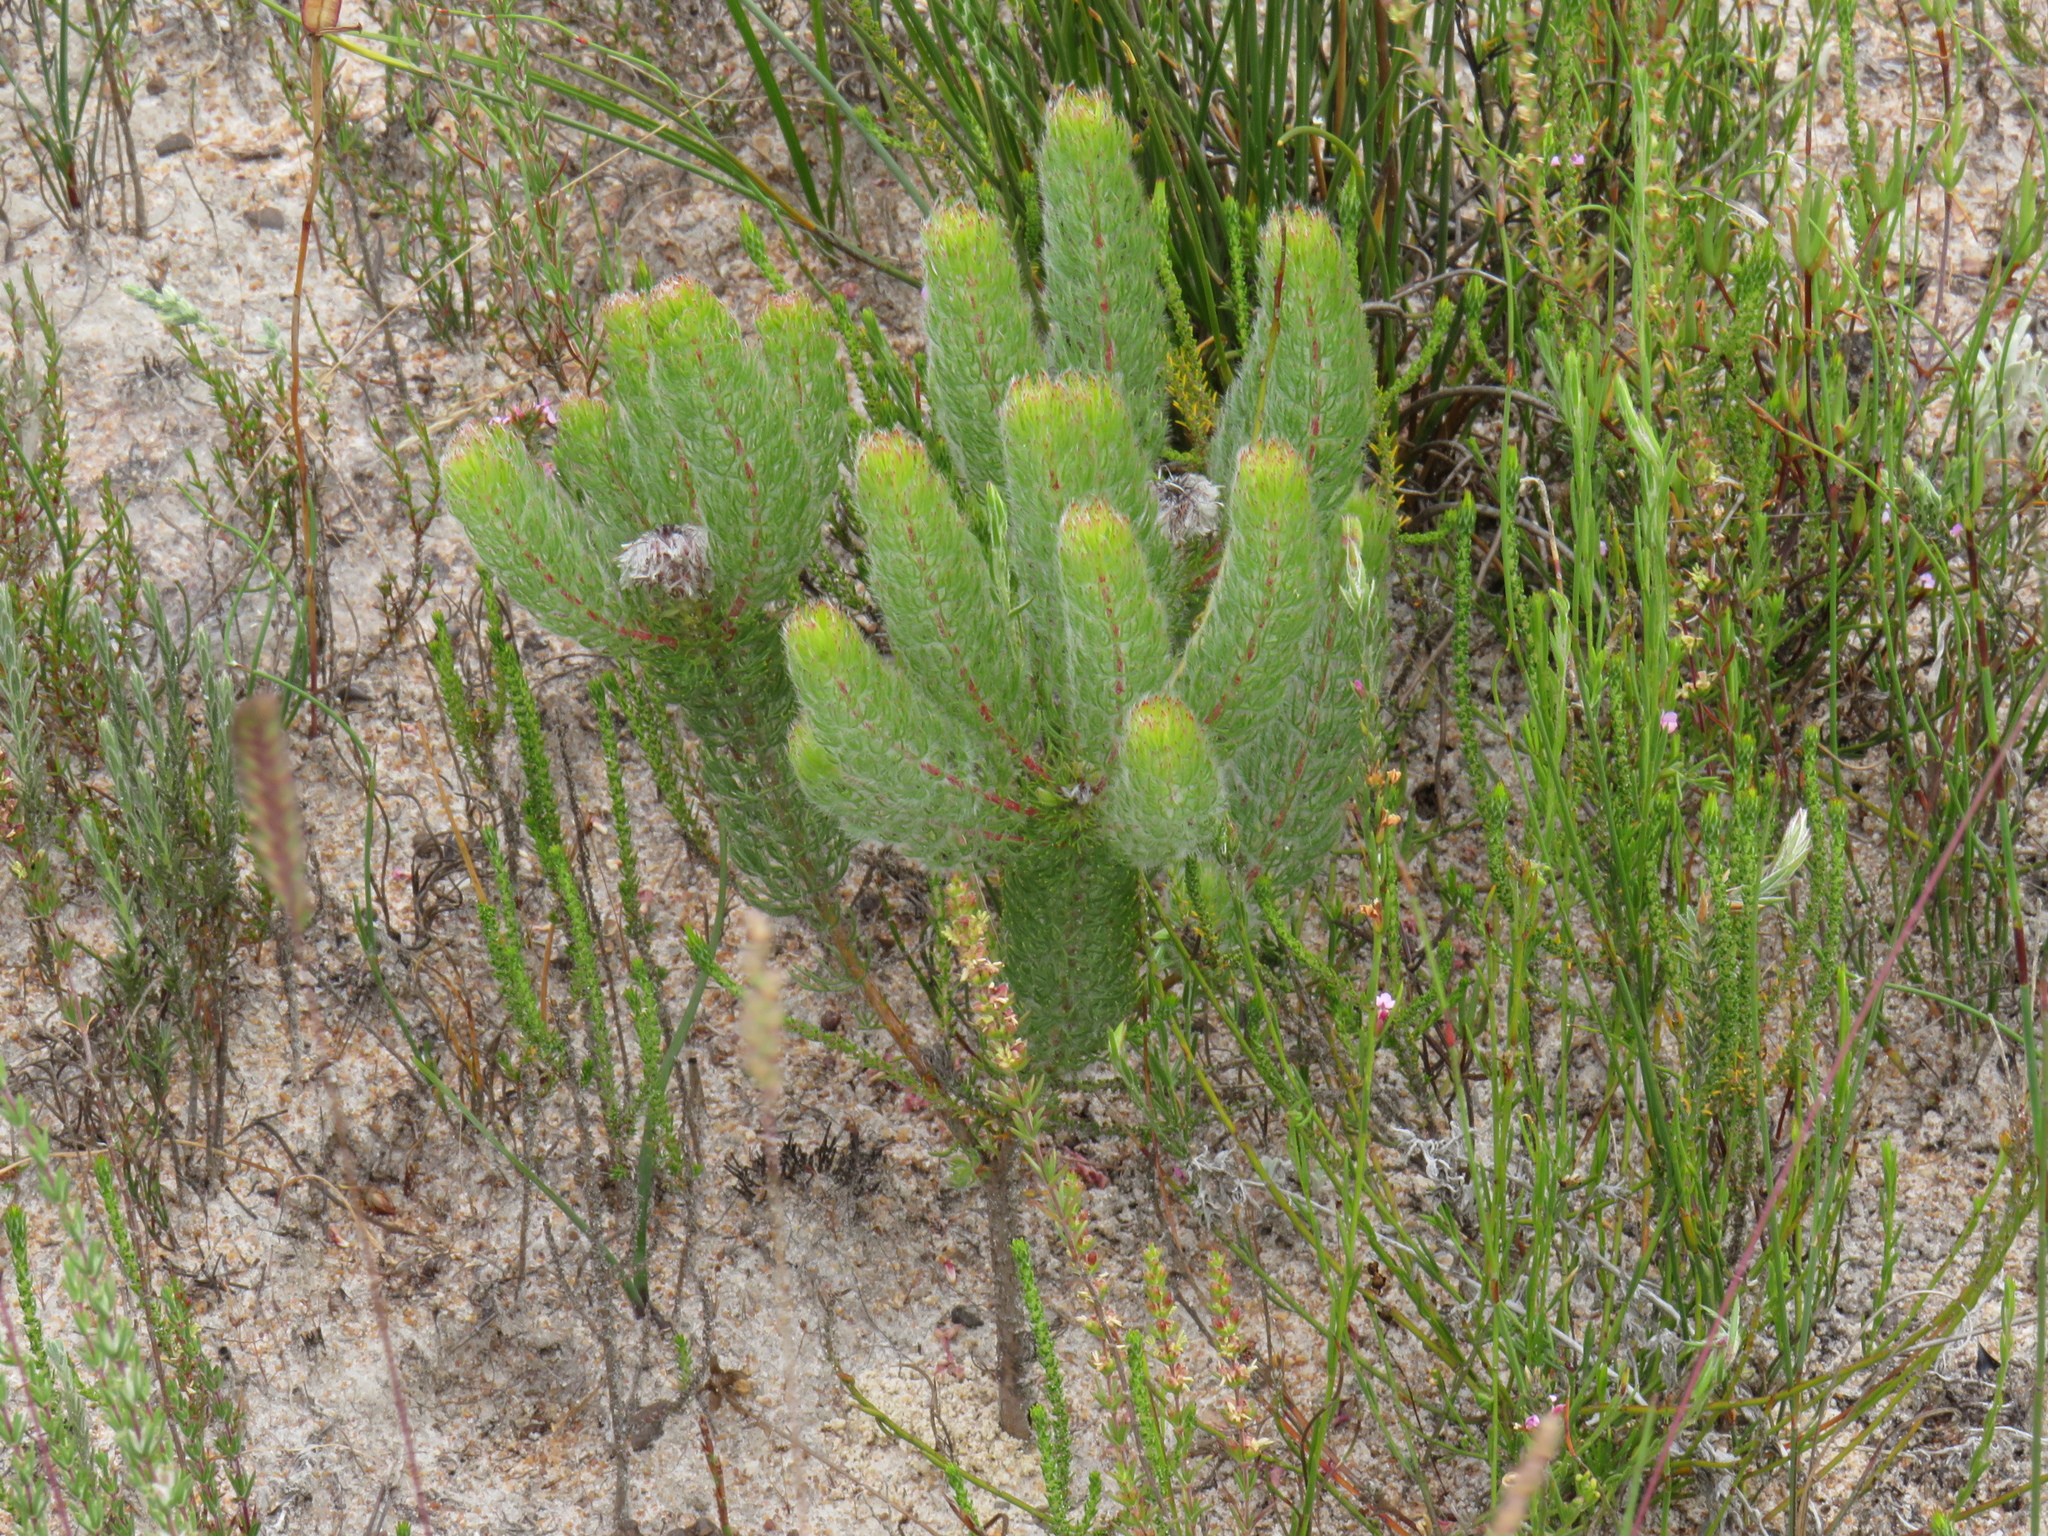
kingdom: Plantae
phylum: Tracheophyta
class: Magnoliopsida
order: Proteales
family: Proteaceae
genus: Serruria
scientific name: Serruria brownii
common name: Bottlebrush spiderhead
